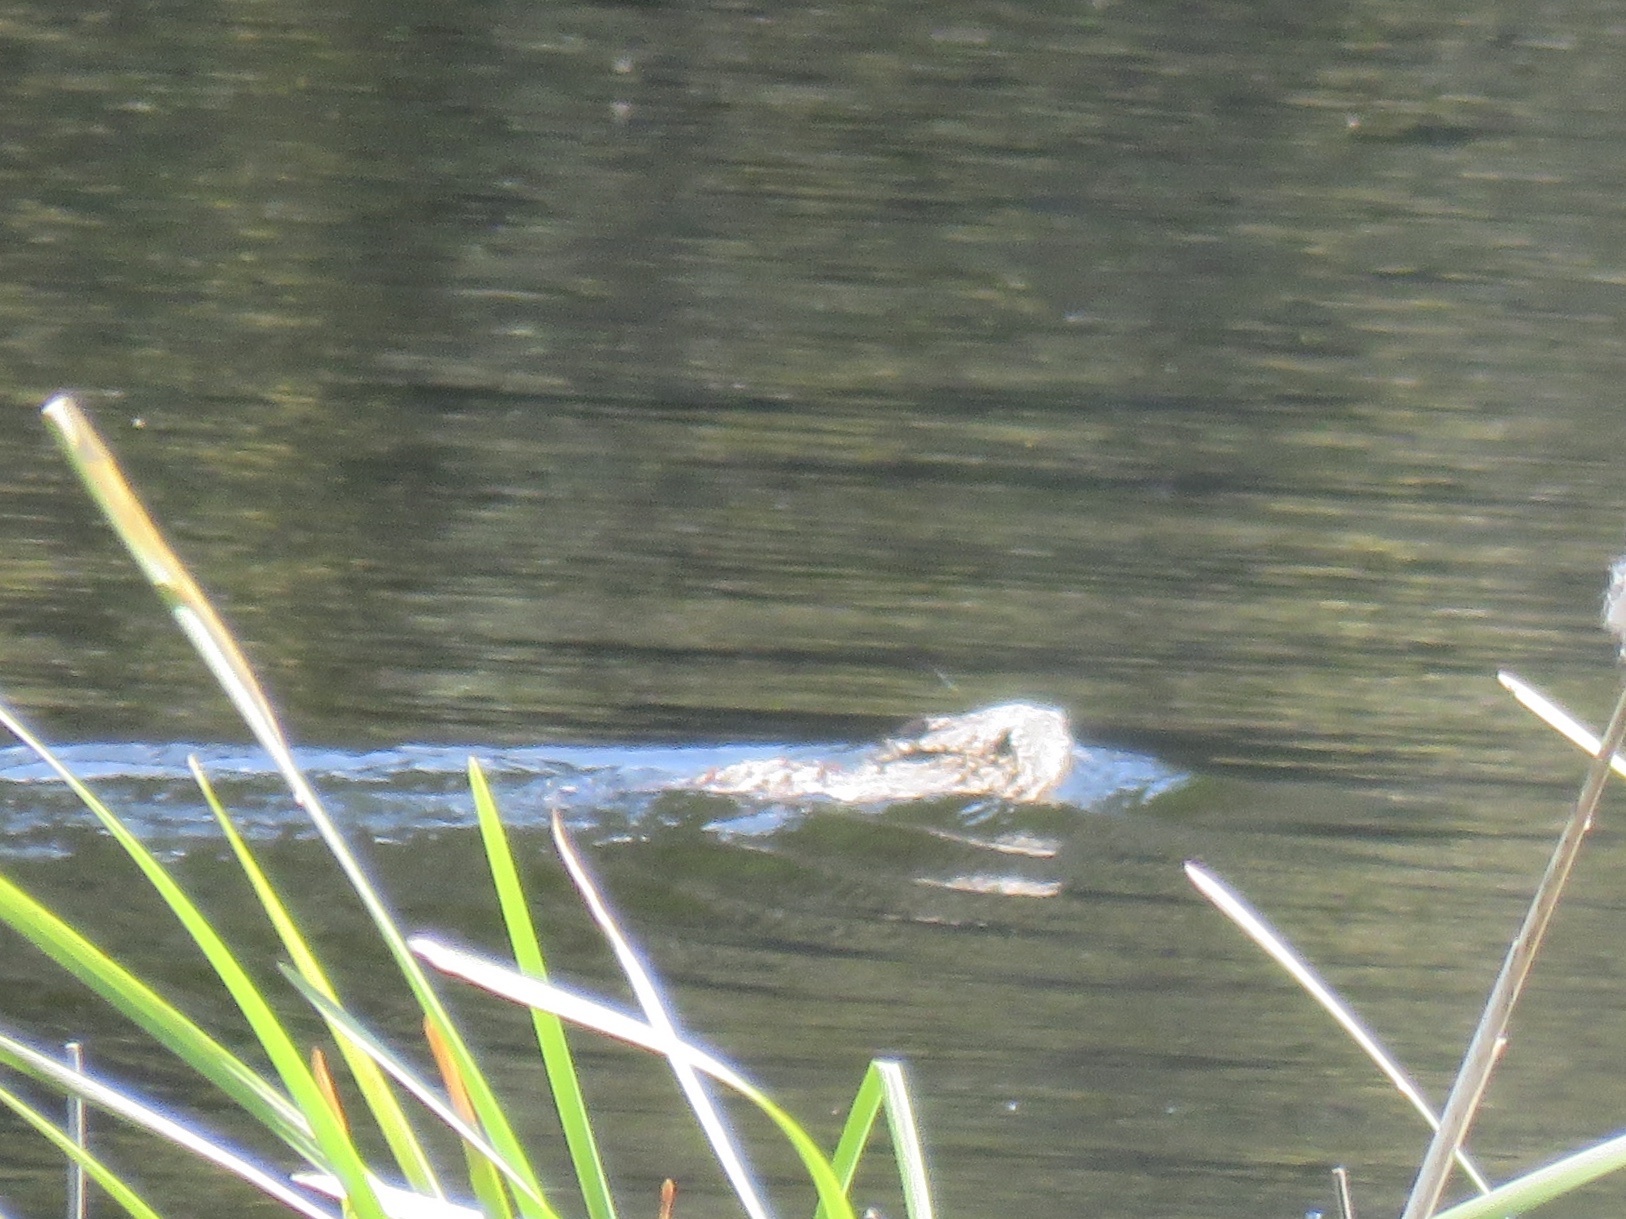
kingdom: Animalia
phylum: Chordata
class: Mammalia
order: Rodentia
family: Cricetidae
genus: Ondatra
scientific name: Ondatra zibethicus
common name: Muskrat
